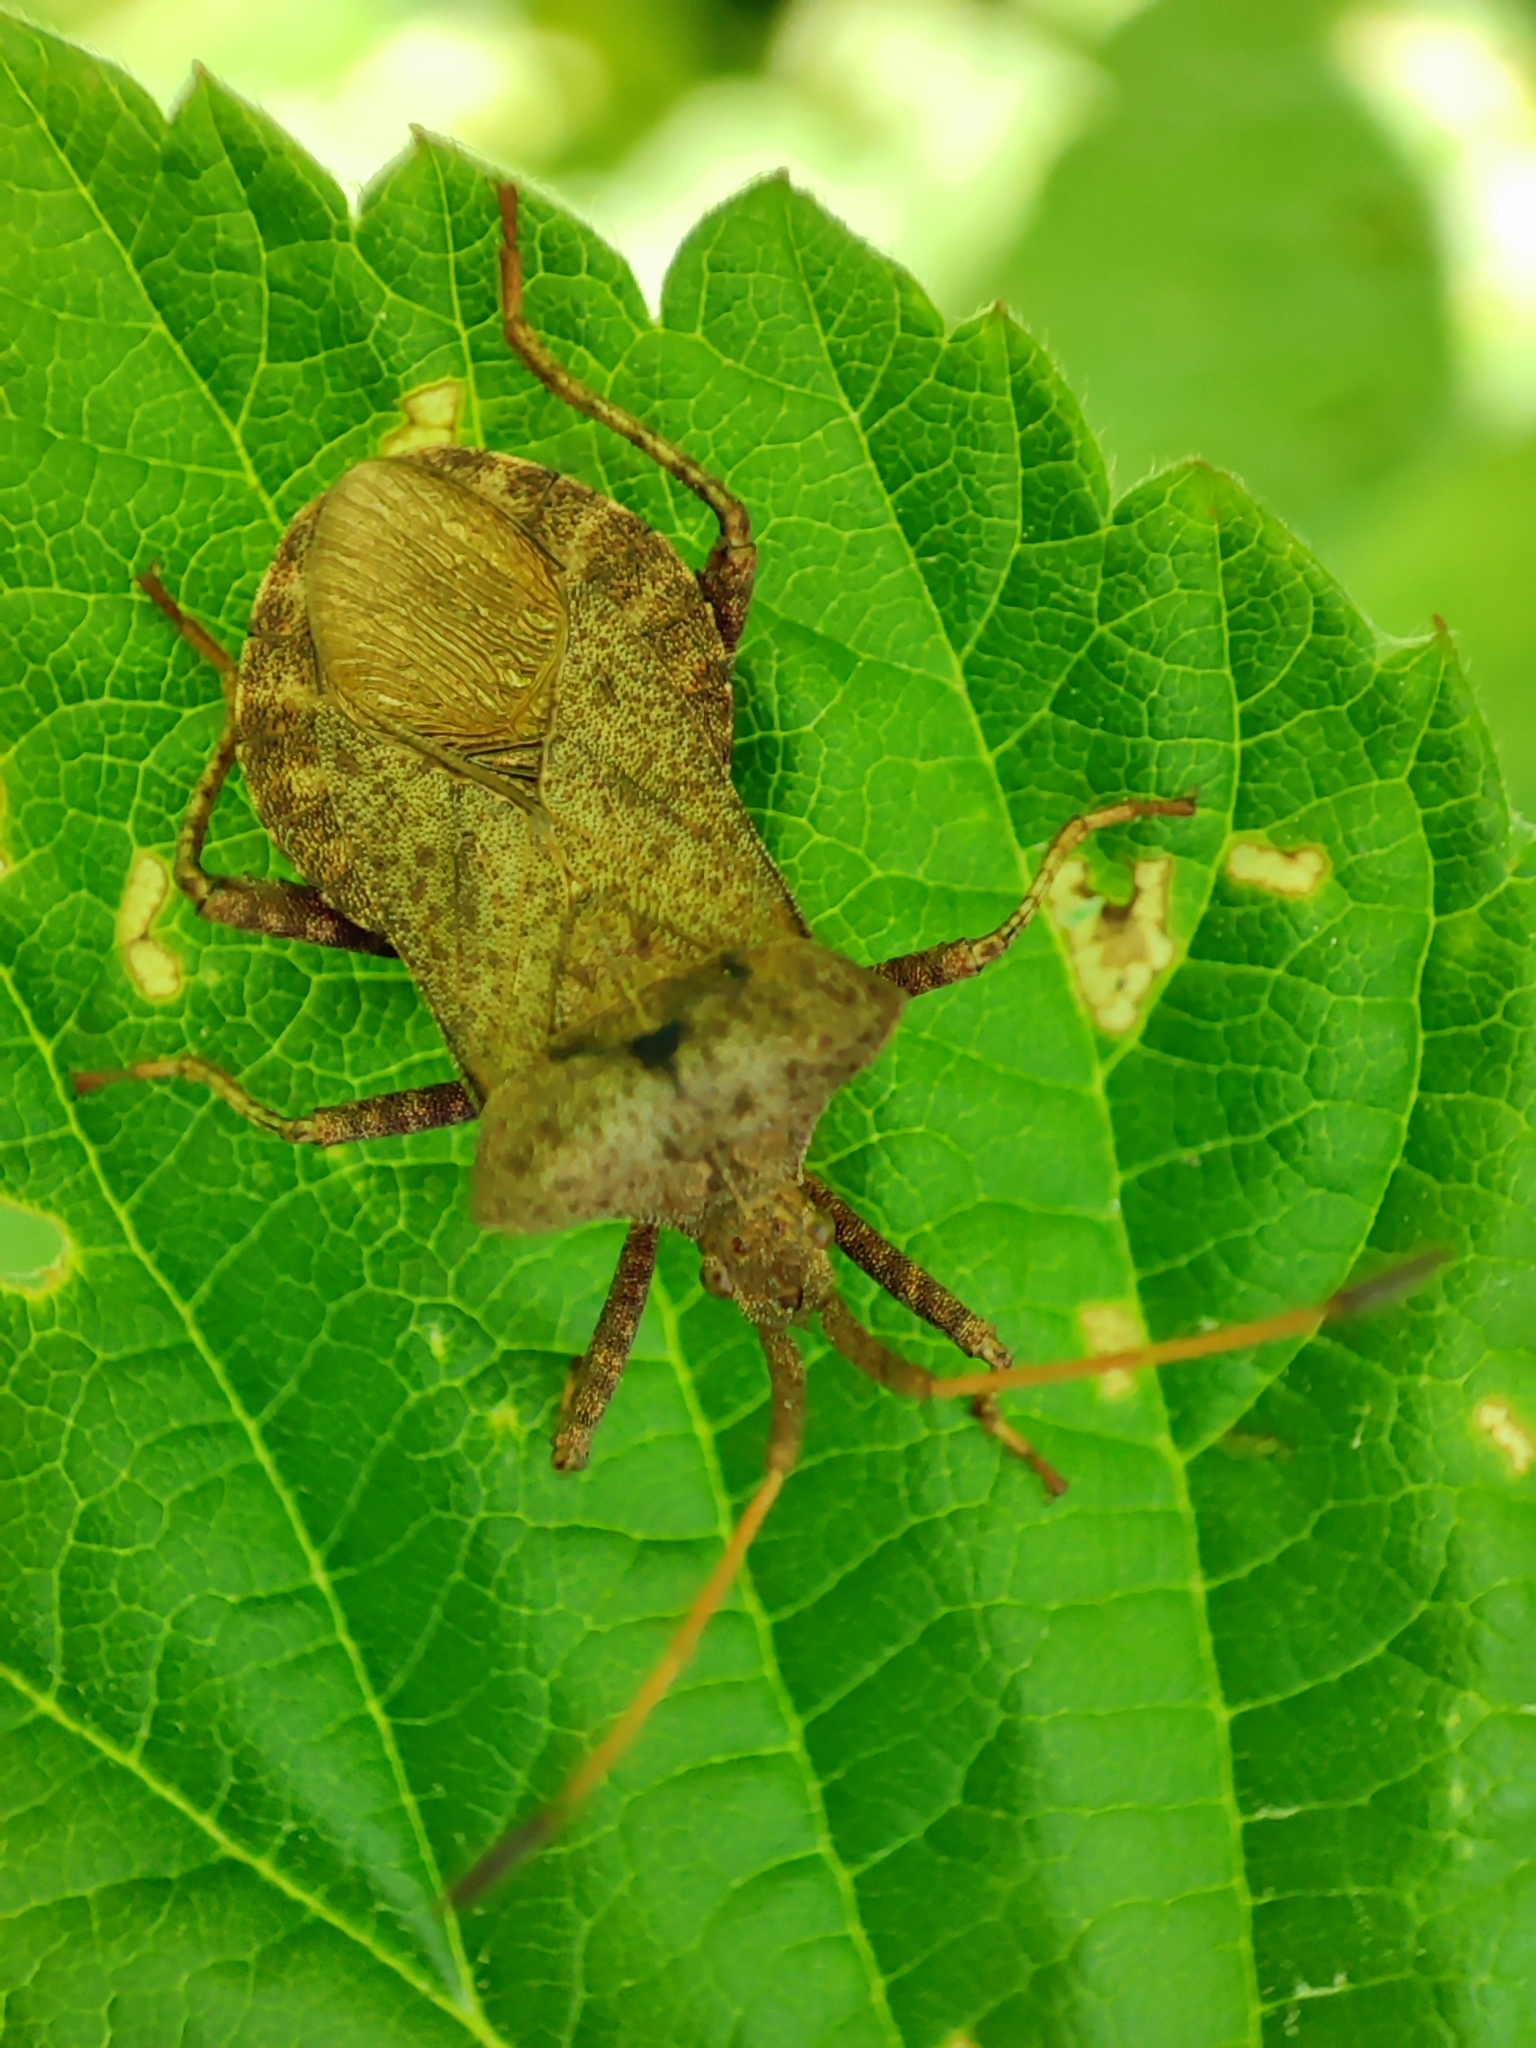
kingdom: Animalia
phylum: Arthropoda
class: Insecta
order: Hemiptera
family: Coreidae
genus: Coreus
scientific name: Coreus marginatus
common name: Dock bug
